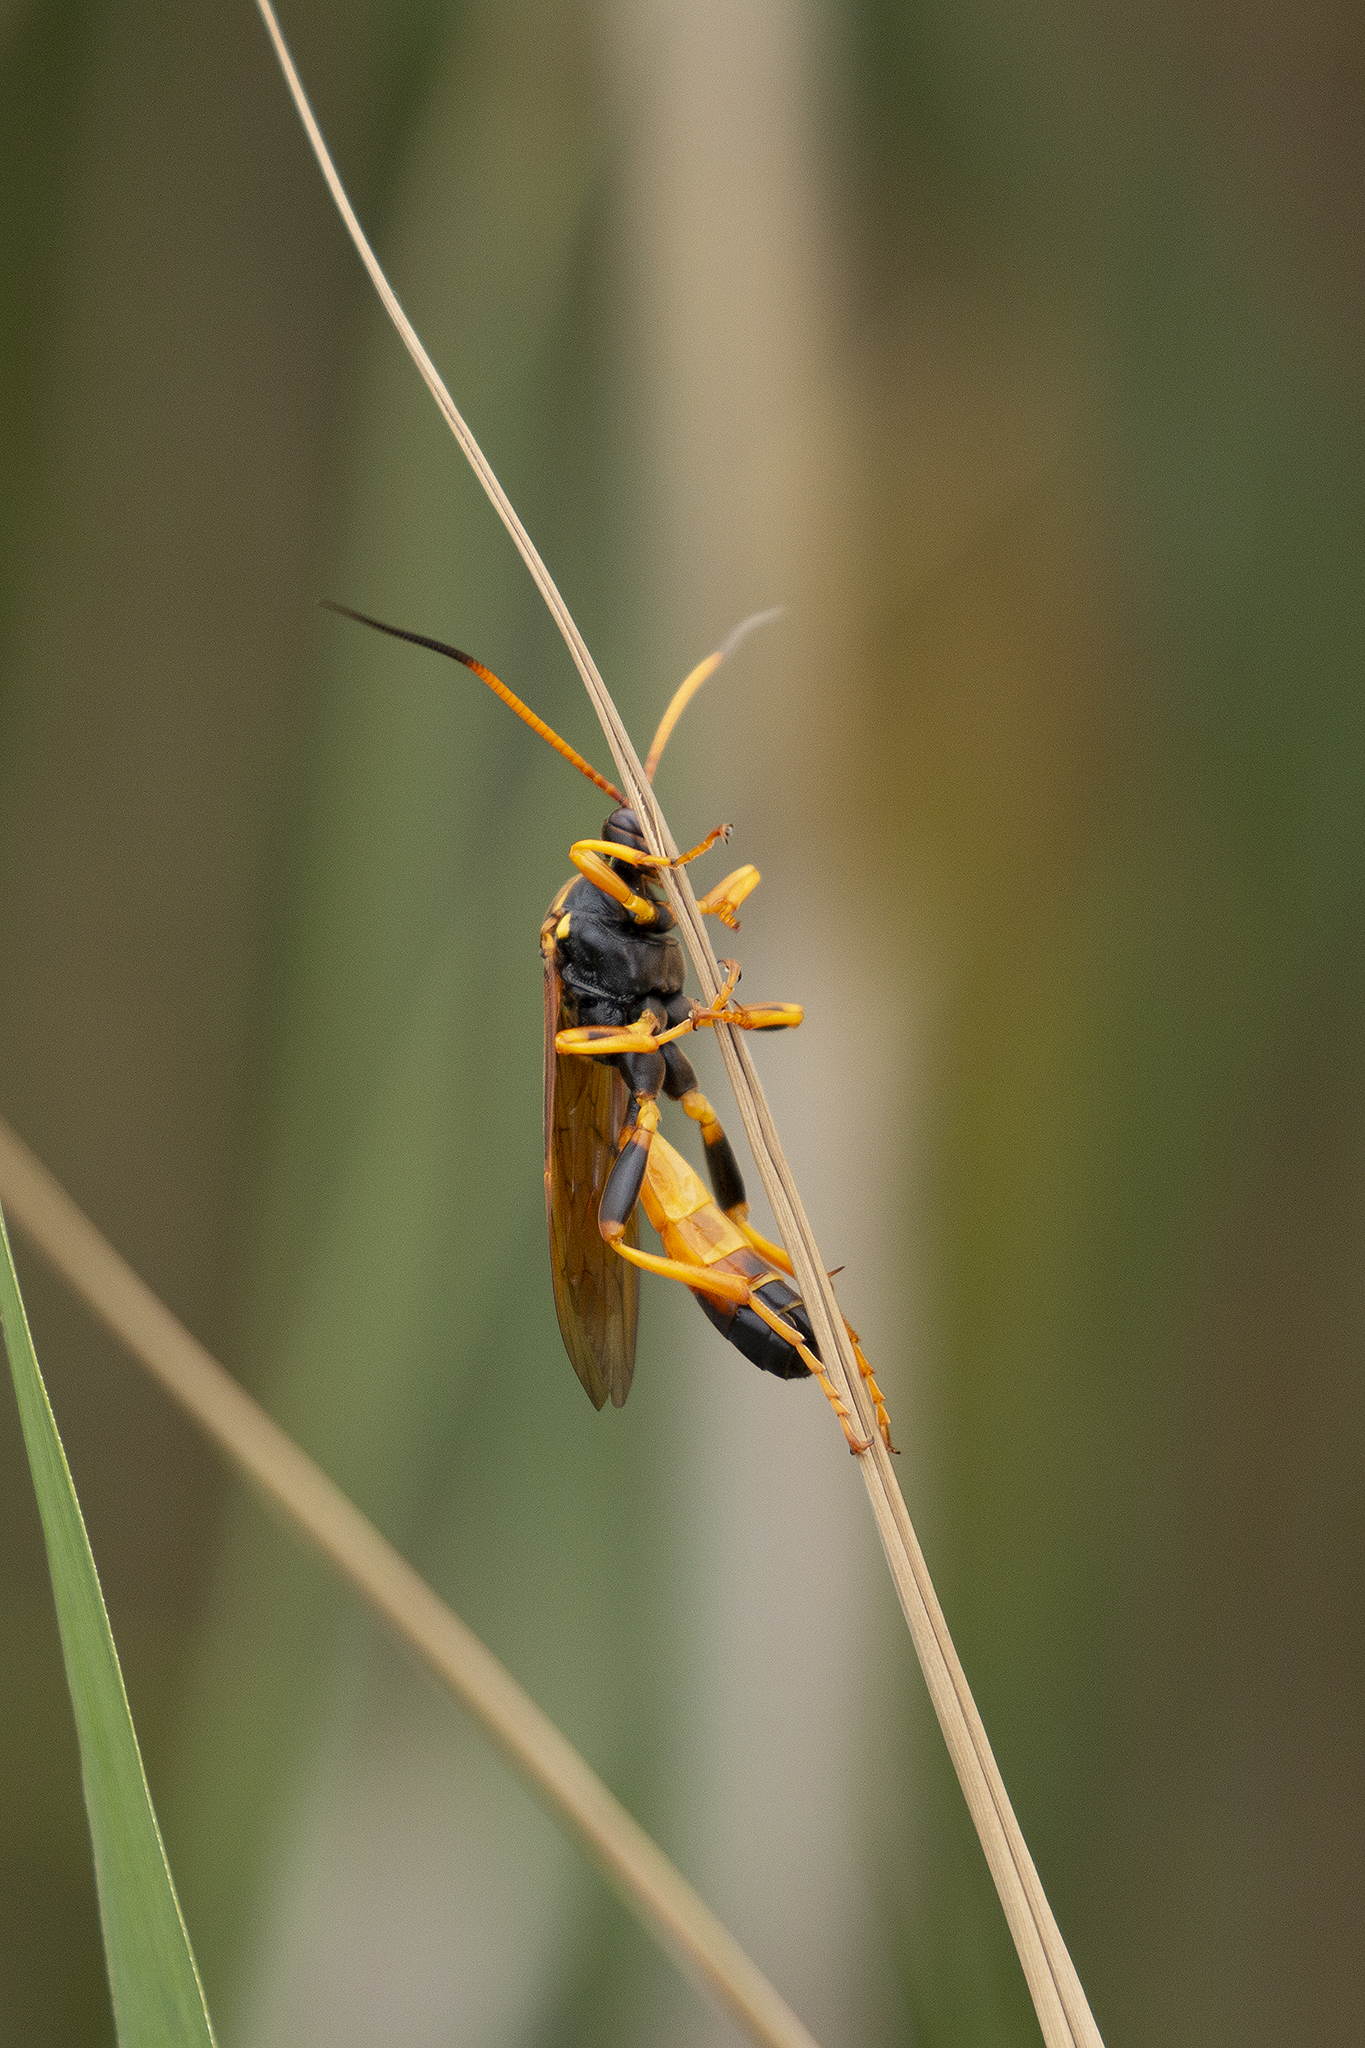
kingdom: Animalia
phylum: Arthropoda
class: Insecta
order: Hymenoptera
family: Ichneumonidae
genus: Callajoppa
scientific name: Callajoppa cirrogaster
